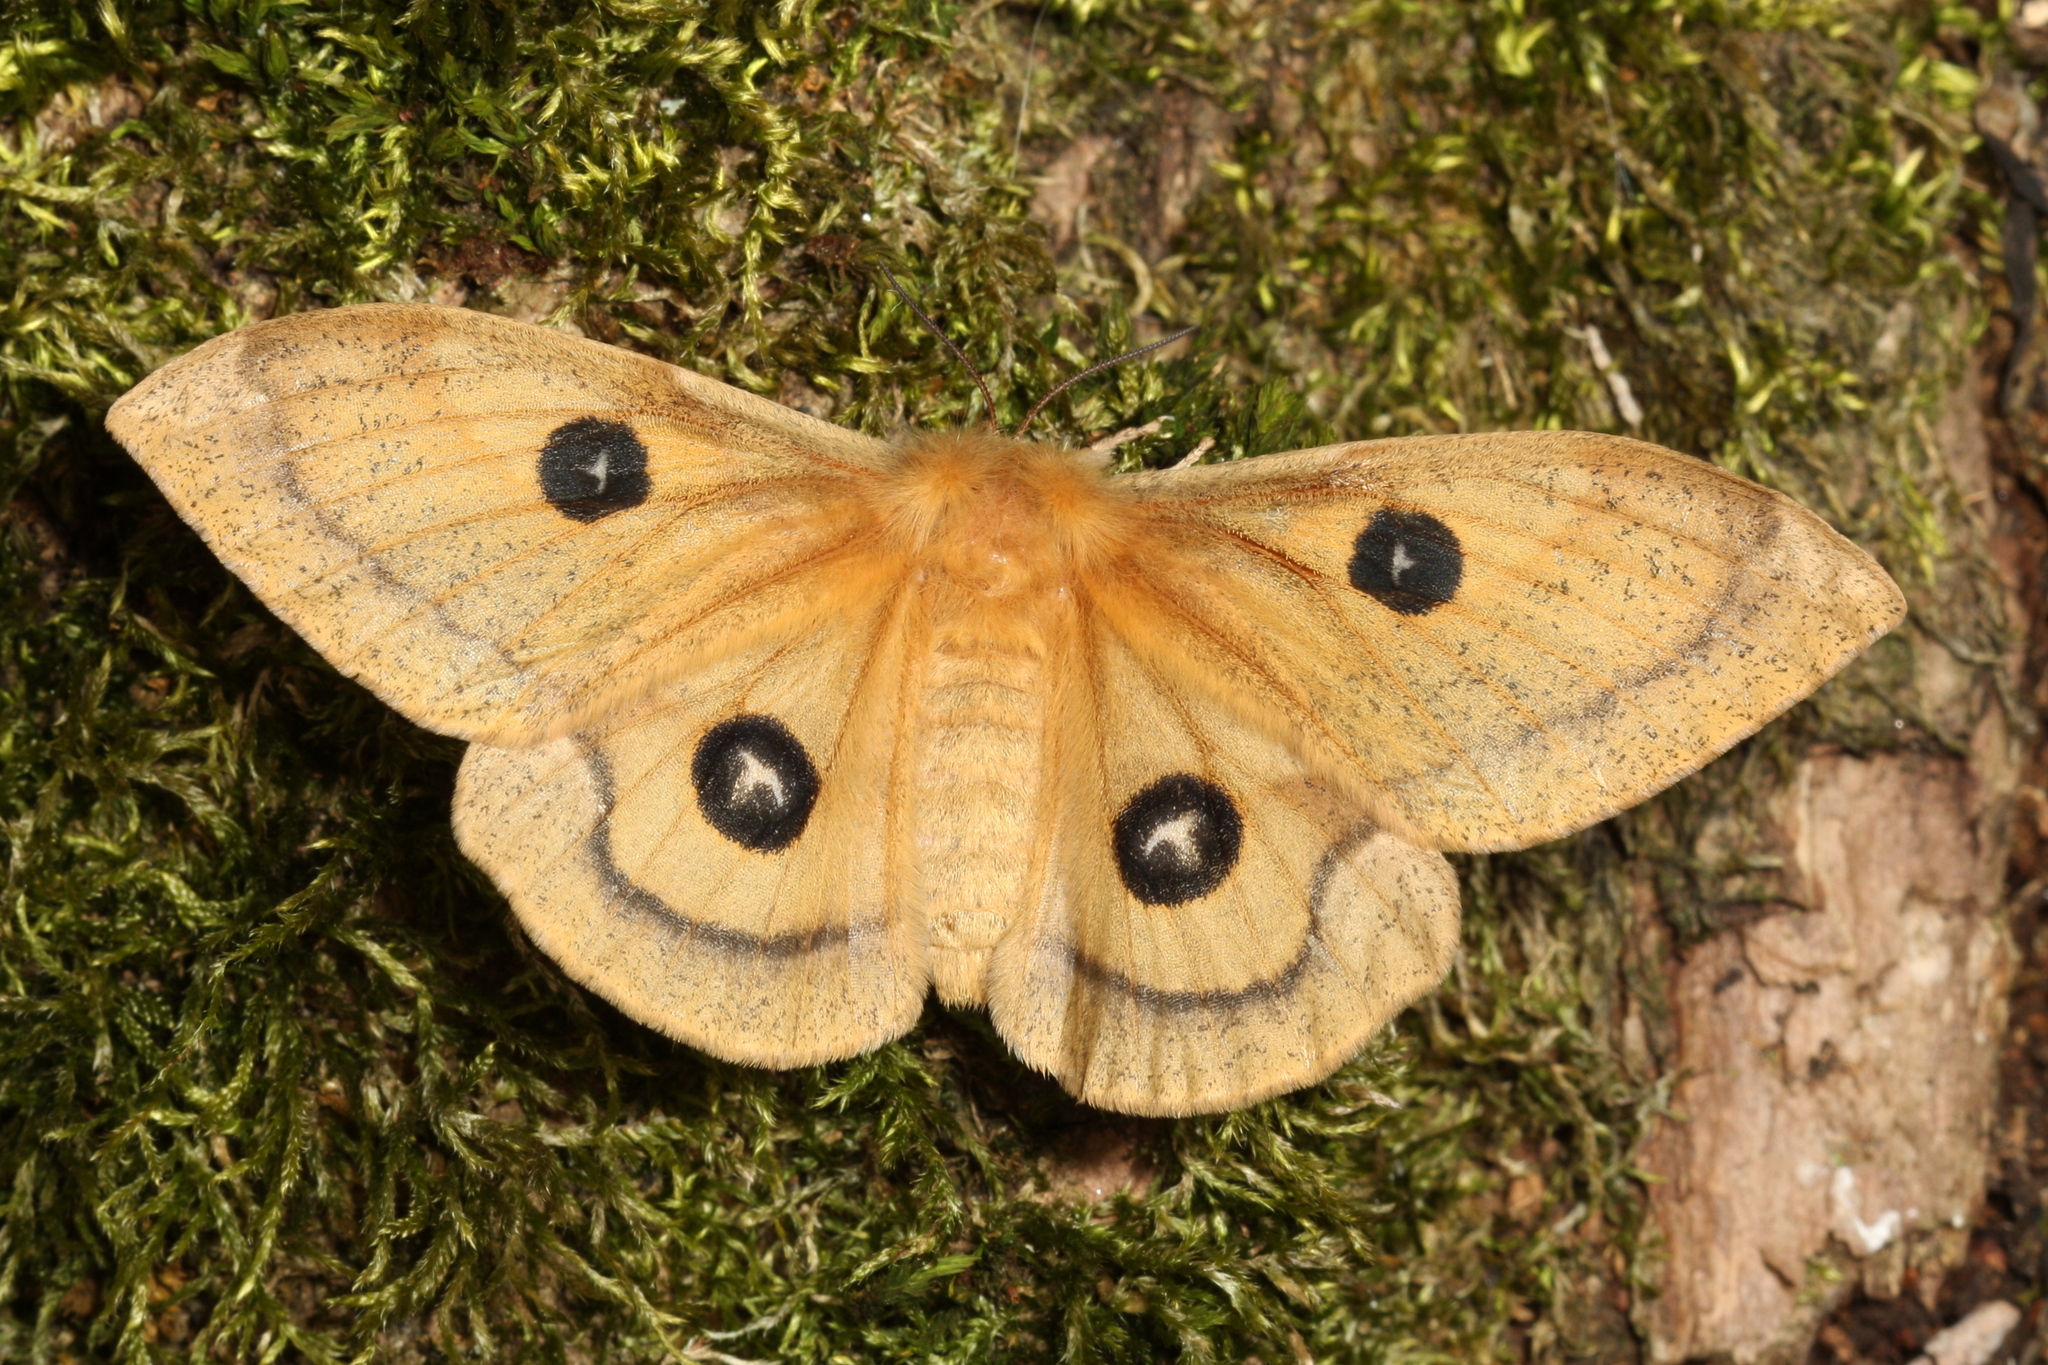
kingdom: Animalia
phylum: Arthropoda
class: Insecta
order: Lepidoptera
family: Saturniidae
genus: Aglia
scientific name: Aglia tau
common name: Tau emperor
